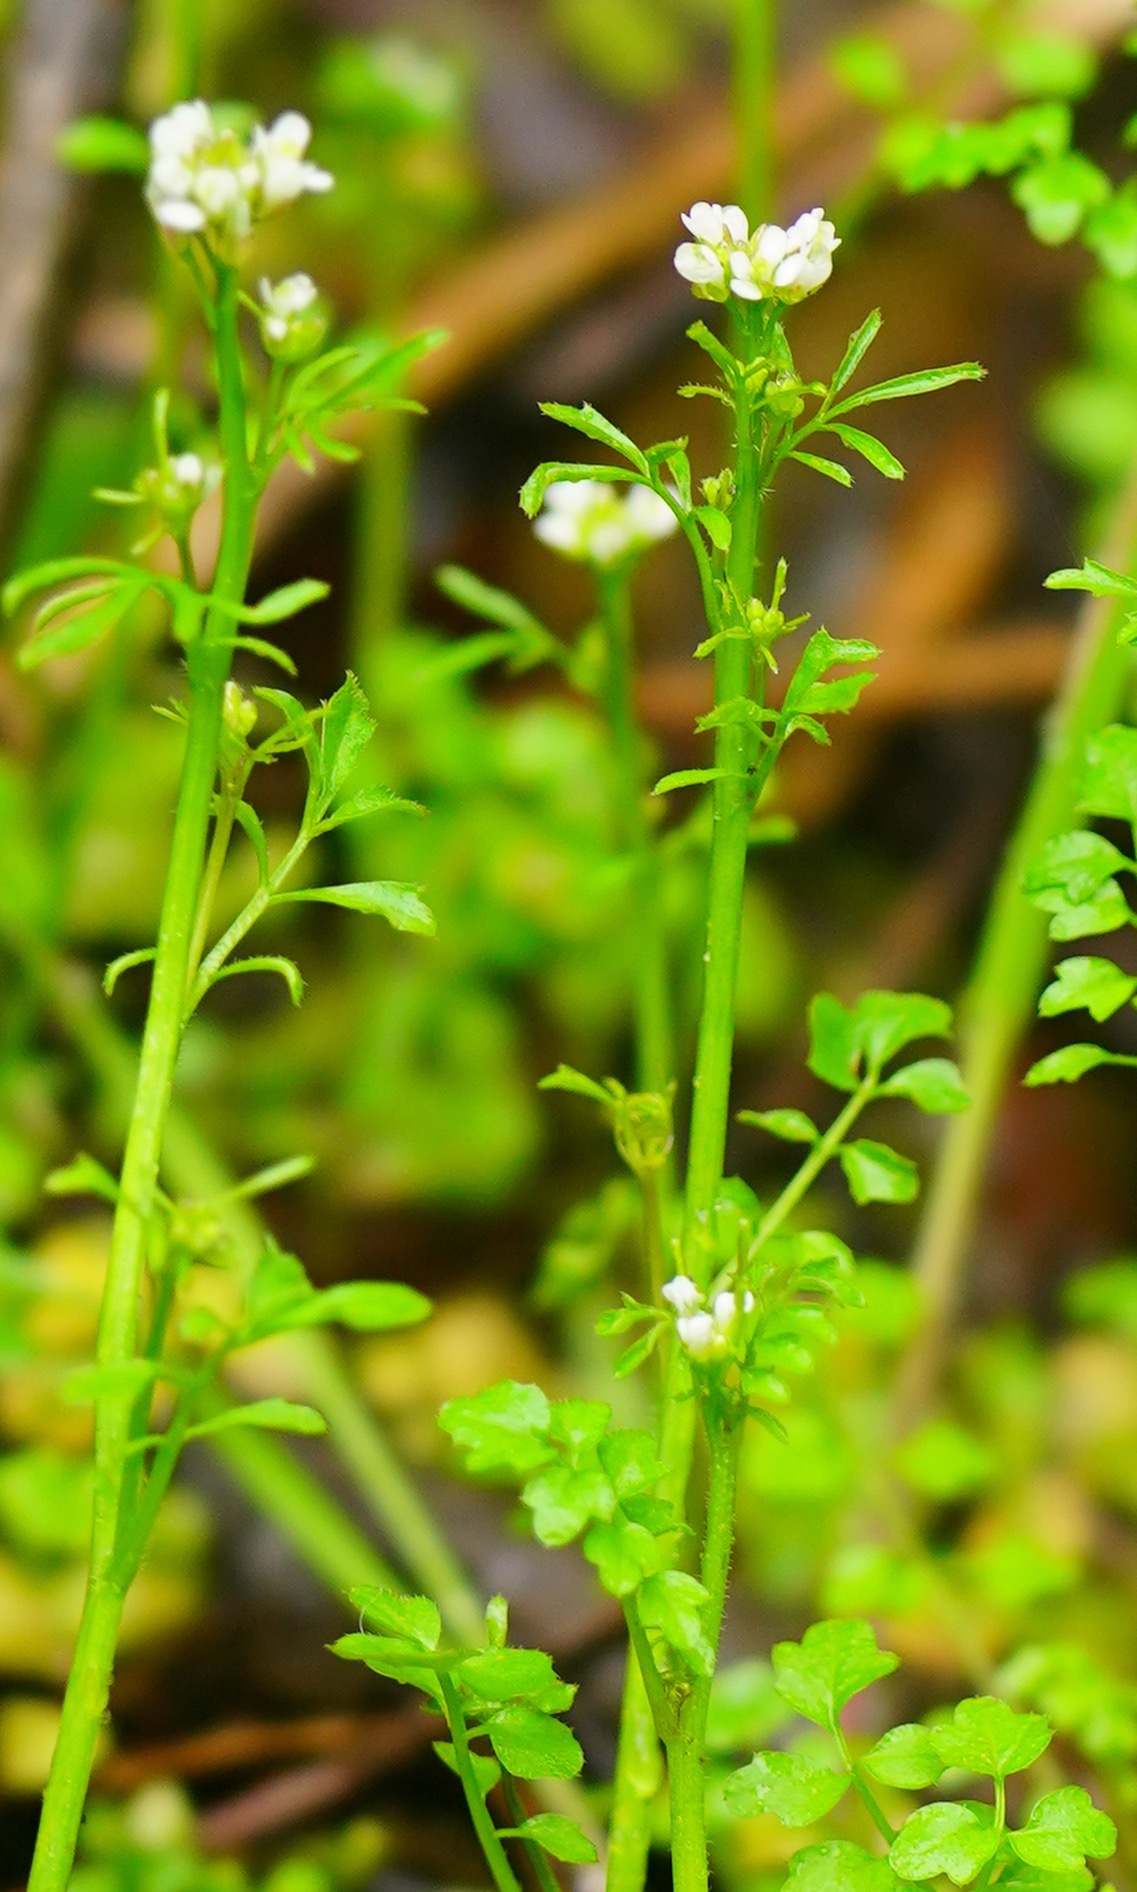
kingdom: Plantae
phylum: Tracheophyta
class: Magnoliopsida
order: Brassicales
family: Brassicaceae
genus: Cardamine
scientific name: Cardamine oligosperma
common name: Idaho bittercress
